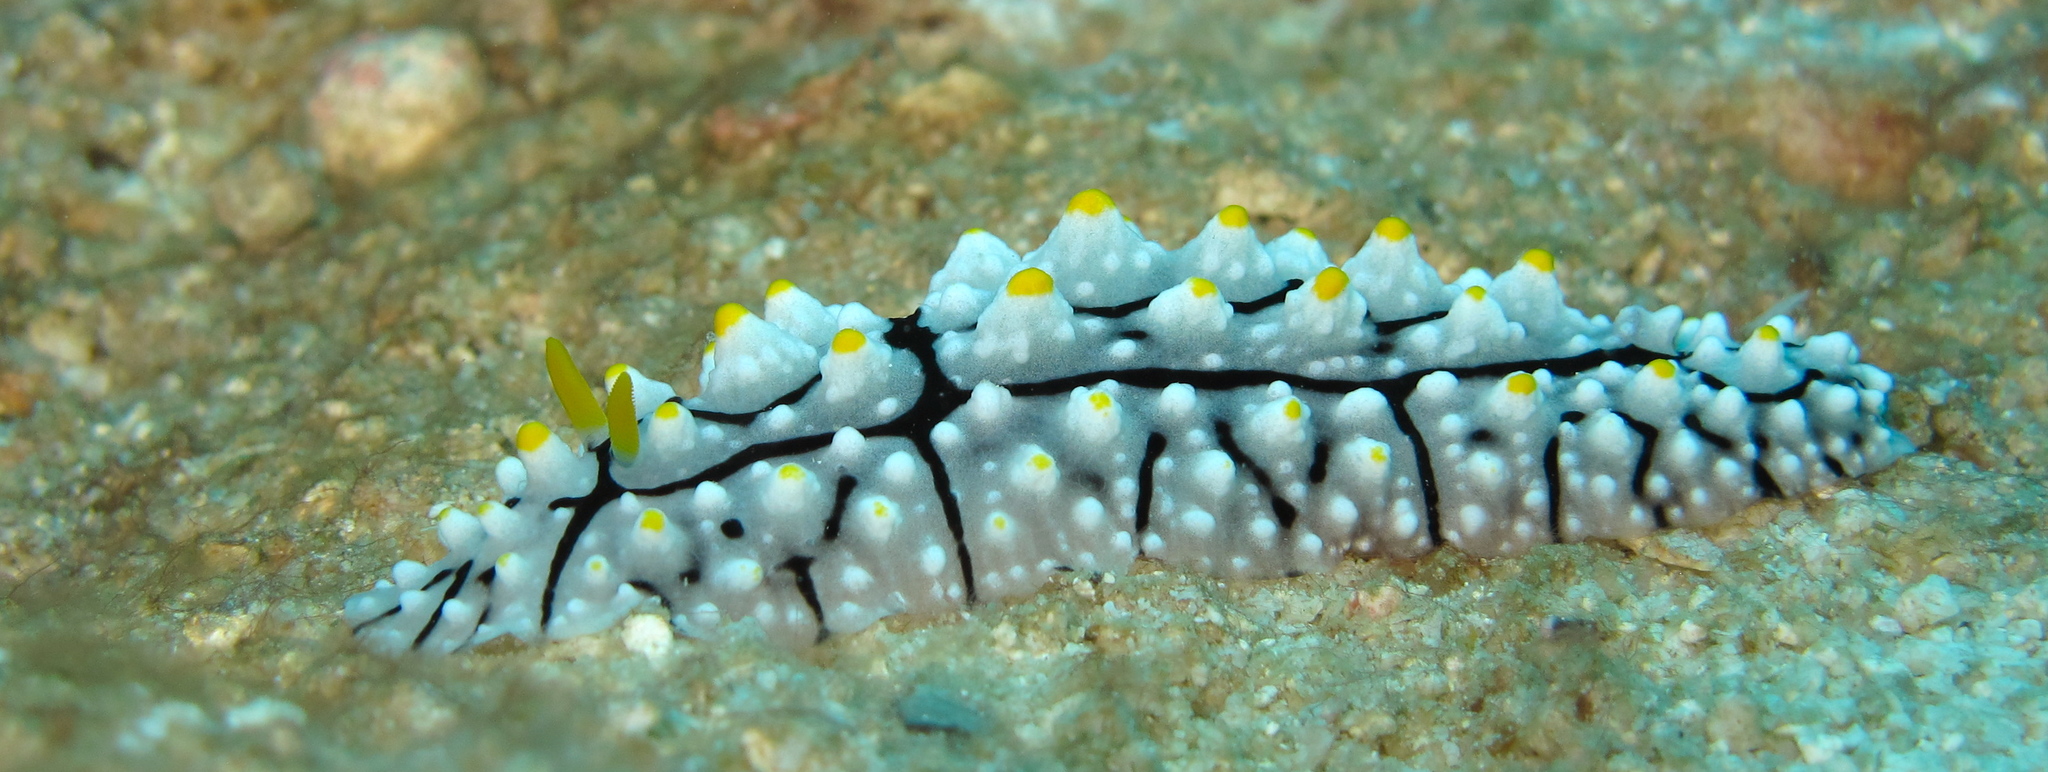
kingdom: Animalia
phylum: Mollusca
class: Gastropoda
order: Nudibranchia
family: Phyllidiidae
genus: Phyllidia
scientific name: Phyllidia elegans
